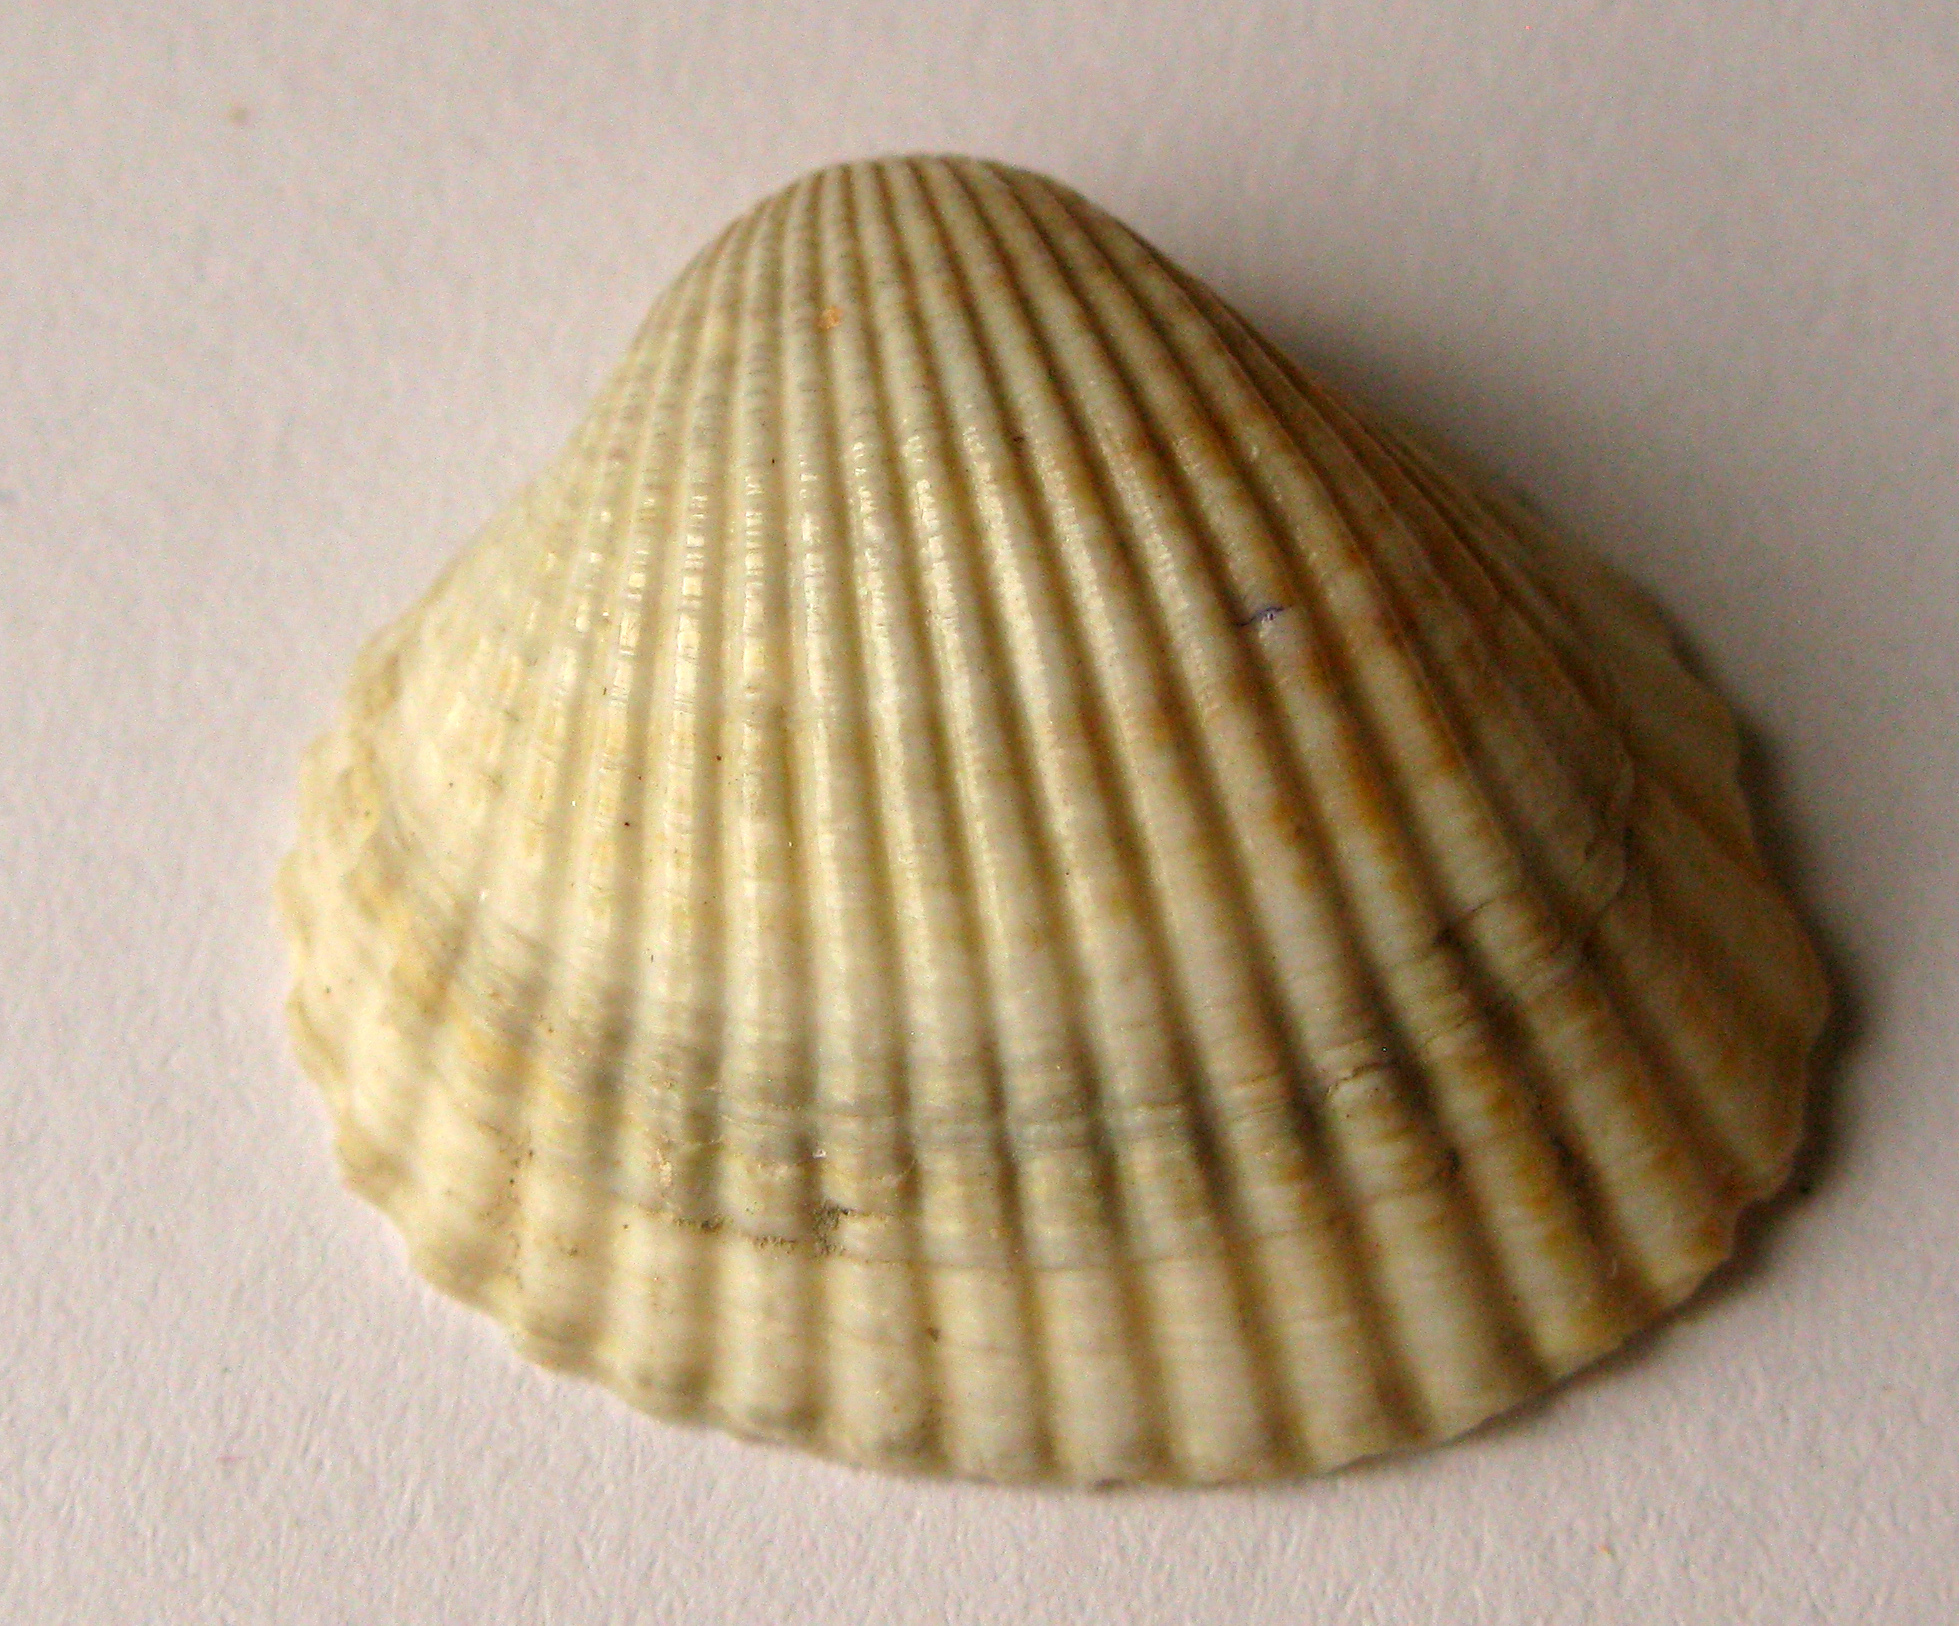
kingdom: Animalia
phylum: Mollusca
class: Bivalvia
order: Cardiida
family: Cardiidae
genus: Cerastoderma
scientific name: Cerastoderma glaucum
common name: Lagoon cockle
